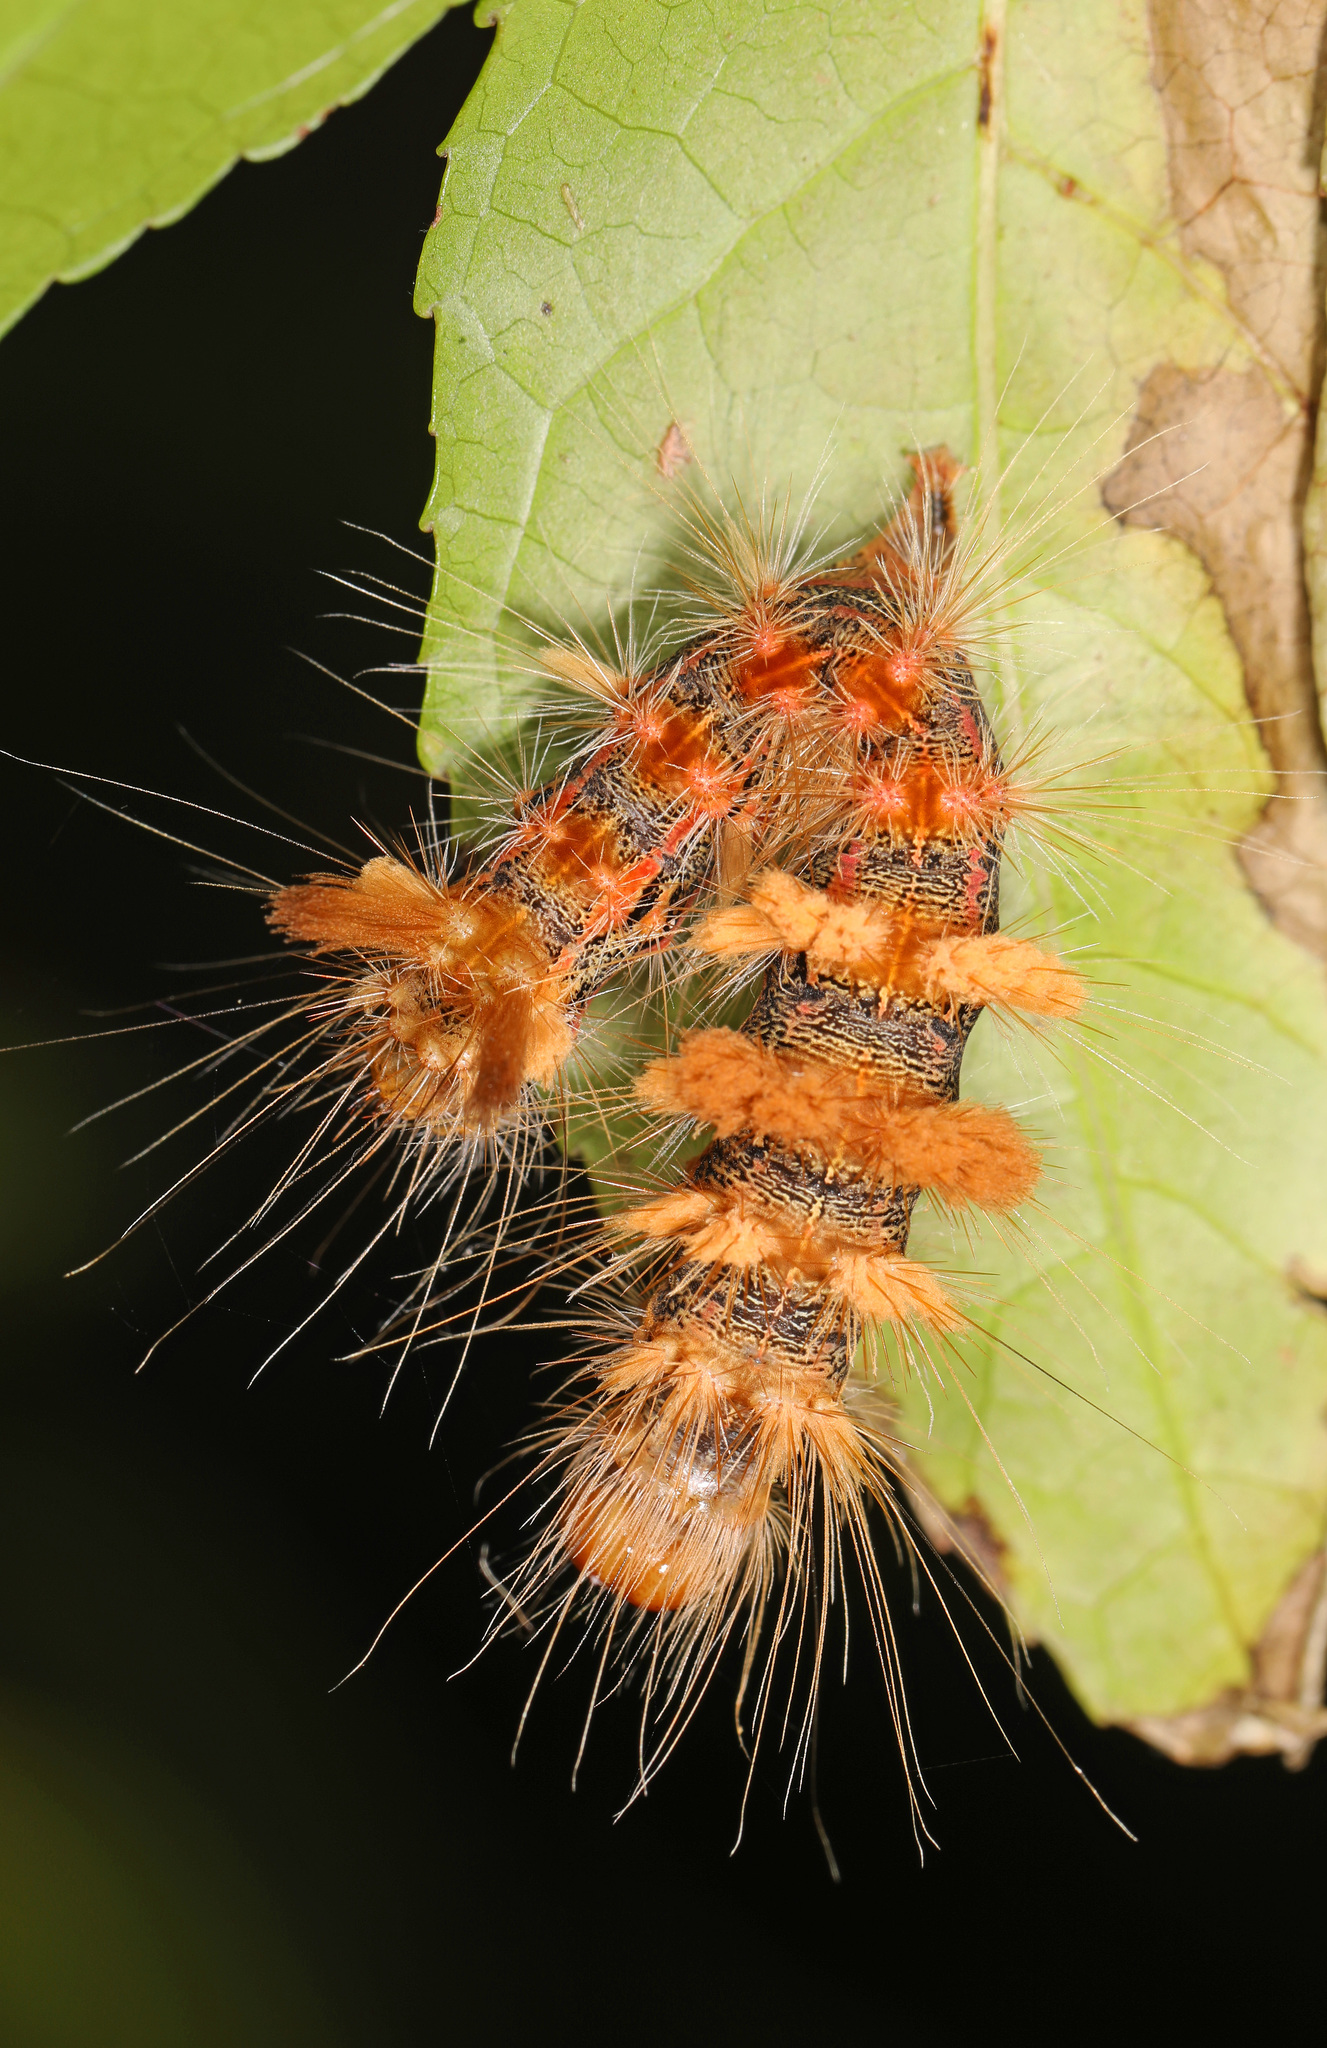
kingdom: Animalia
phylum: Arthropoda
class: Insecta
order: Lepidoptera
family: Noctuidae
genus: Acronicta
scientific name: Acronicta impleta
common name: Powdered dagger
